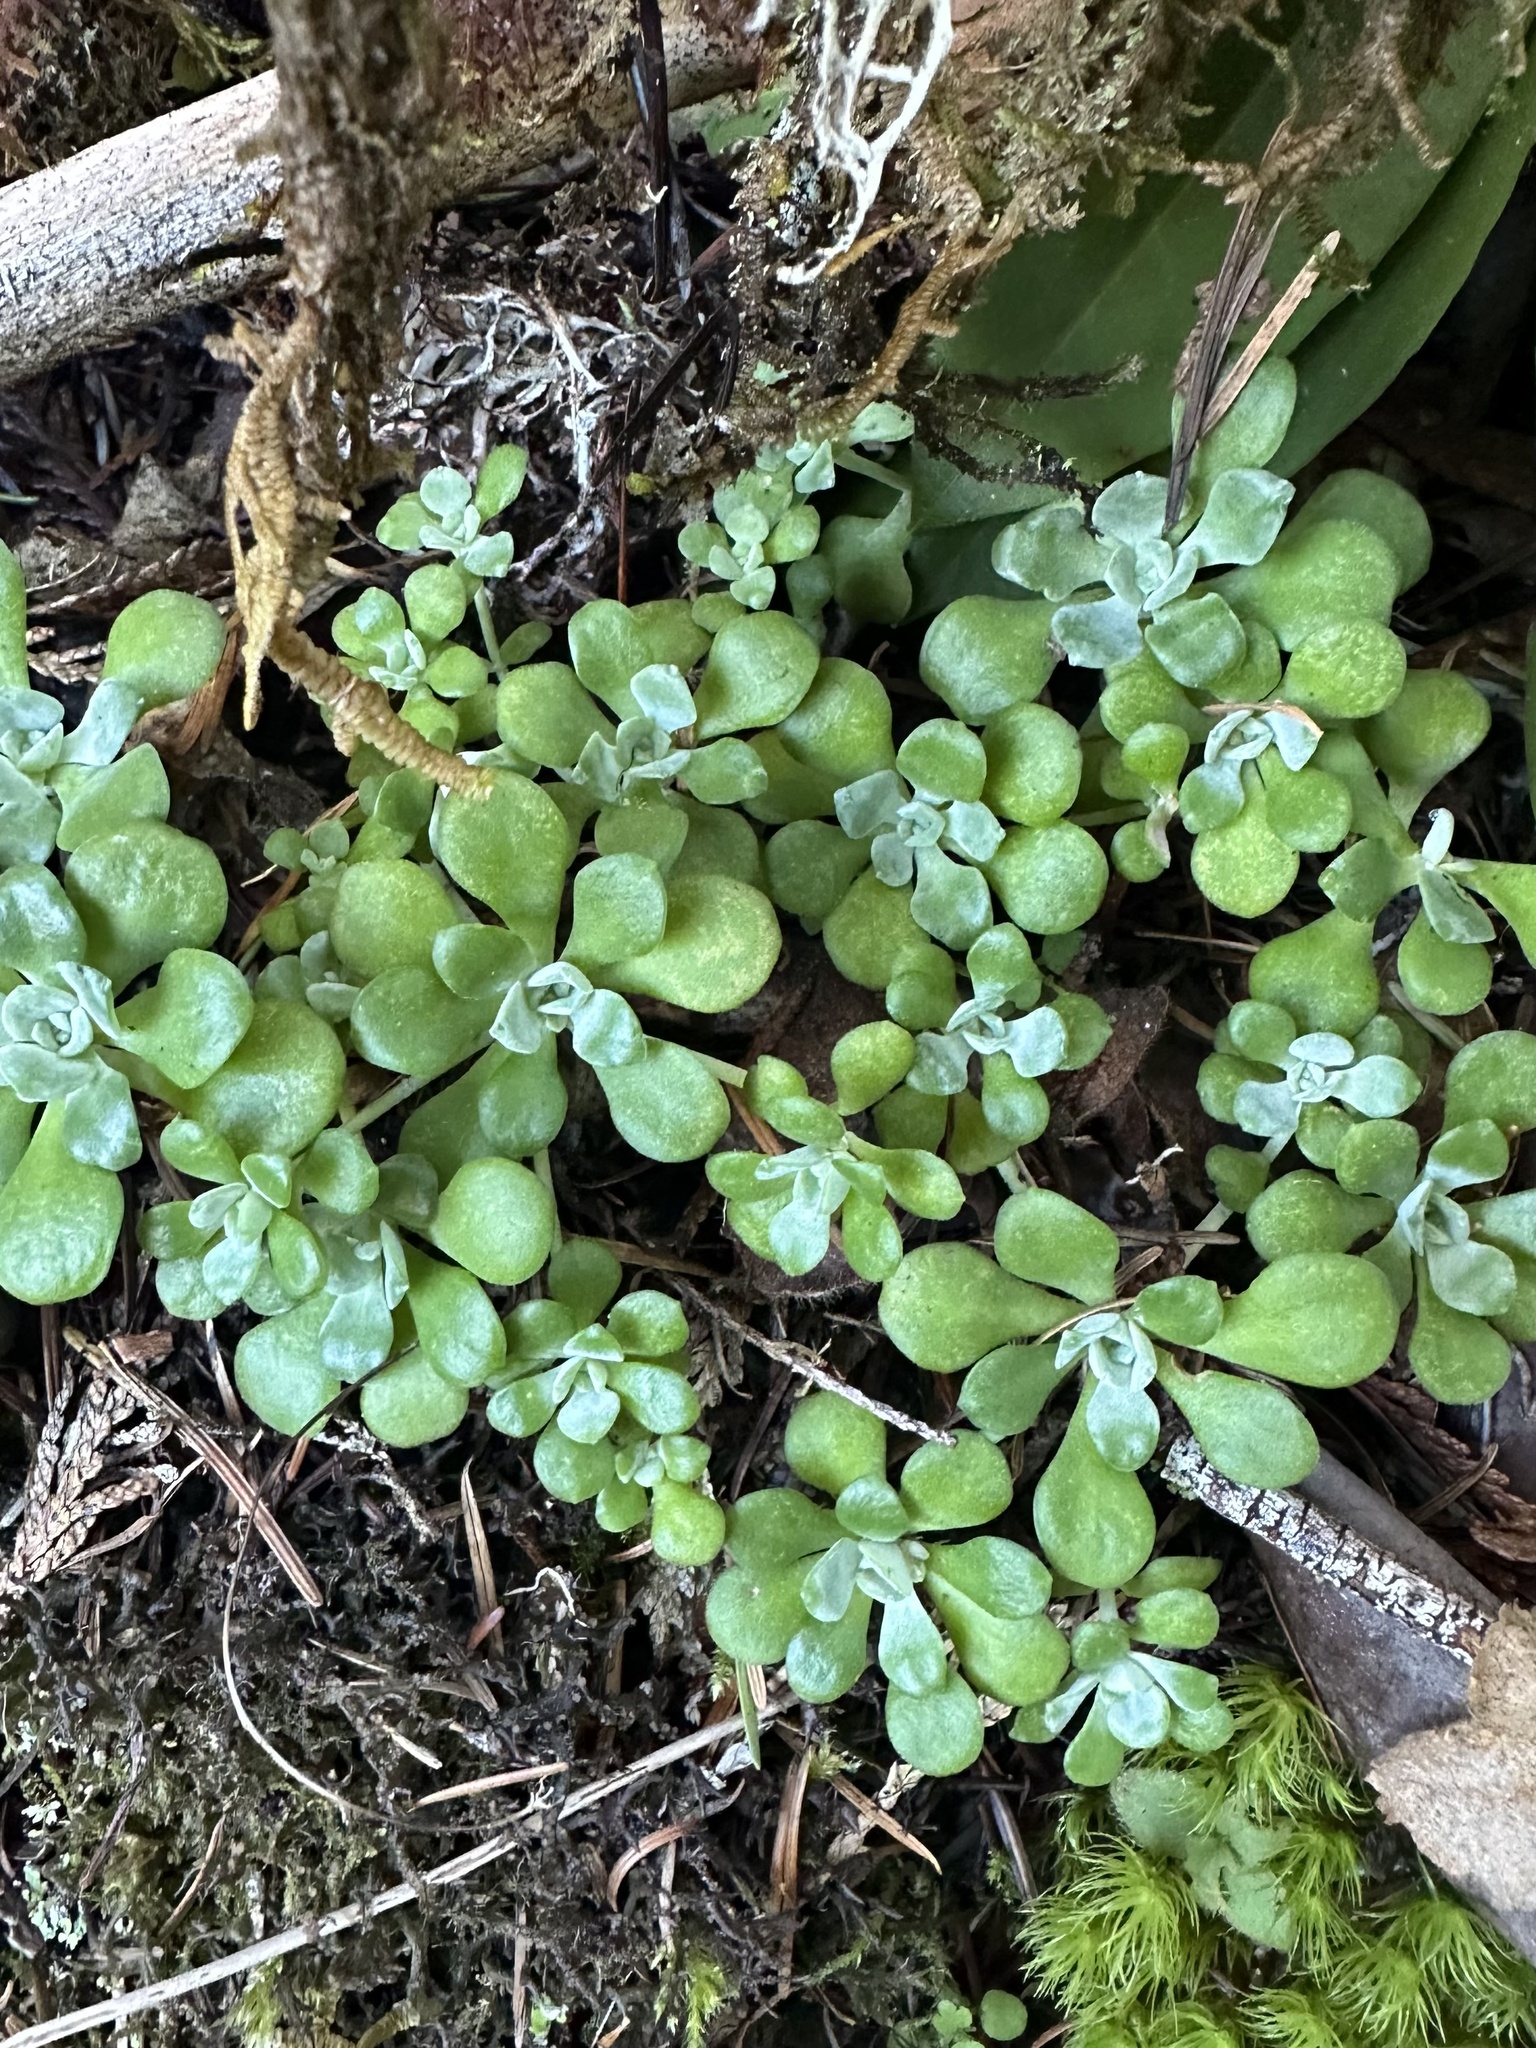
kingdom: Plantae
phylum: Tracheophyta
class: Magnoliopsida
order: Saxifragales
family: Crassulaceae
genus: Sedum
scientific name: Sedum spathulifolium
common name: Colorado stonecrop
